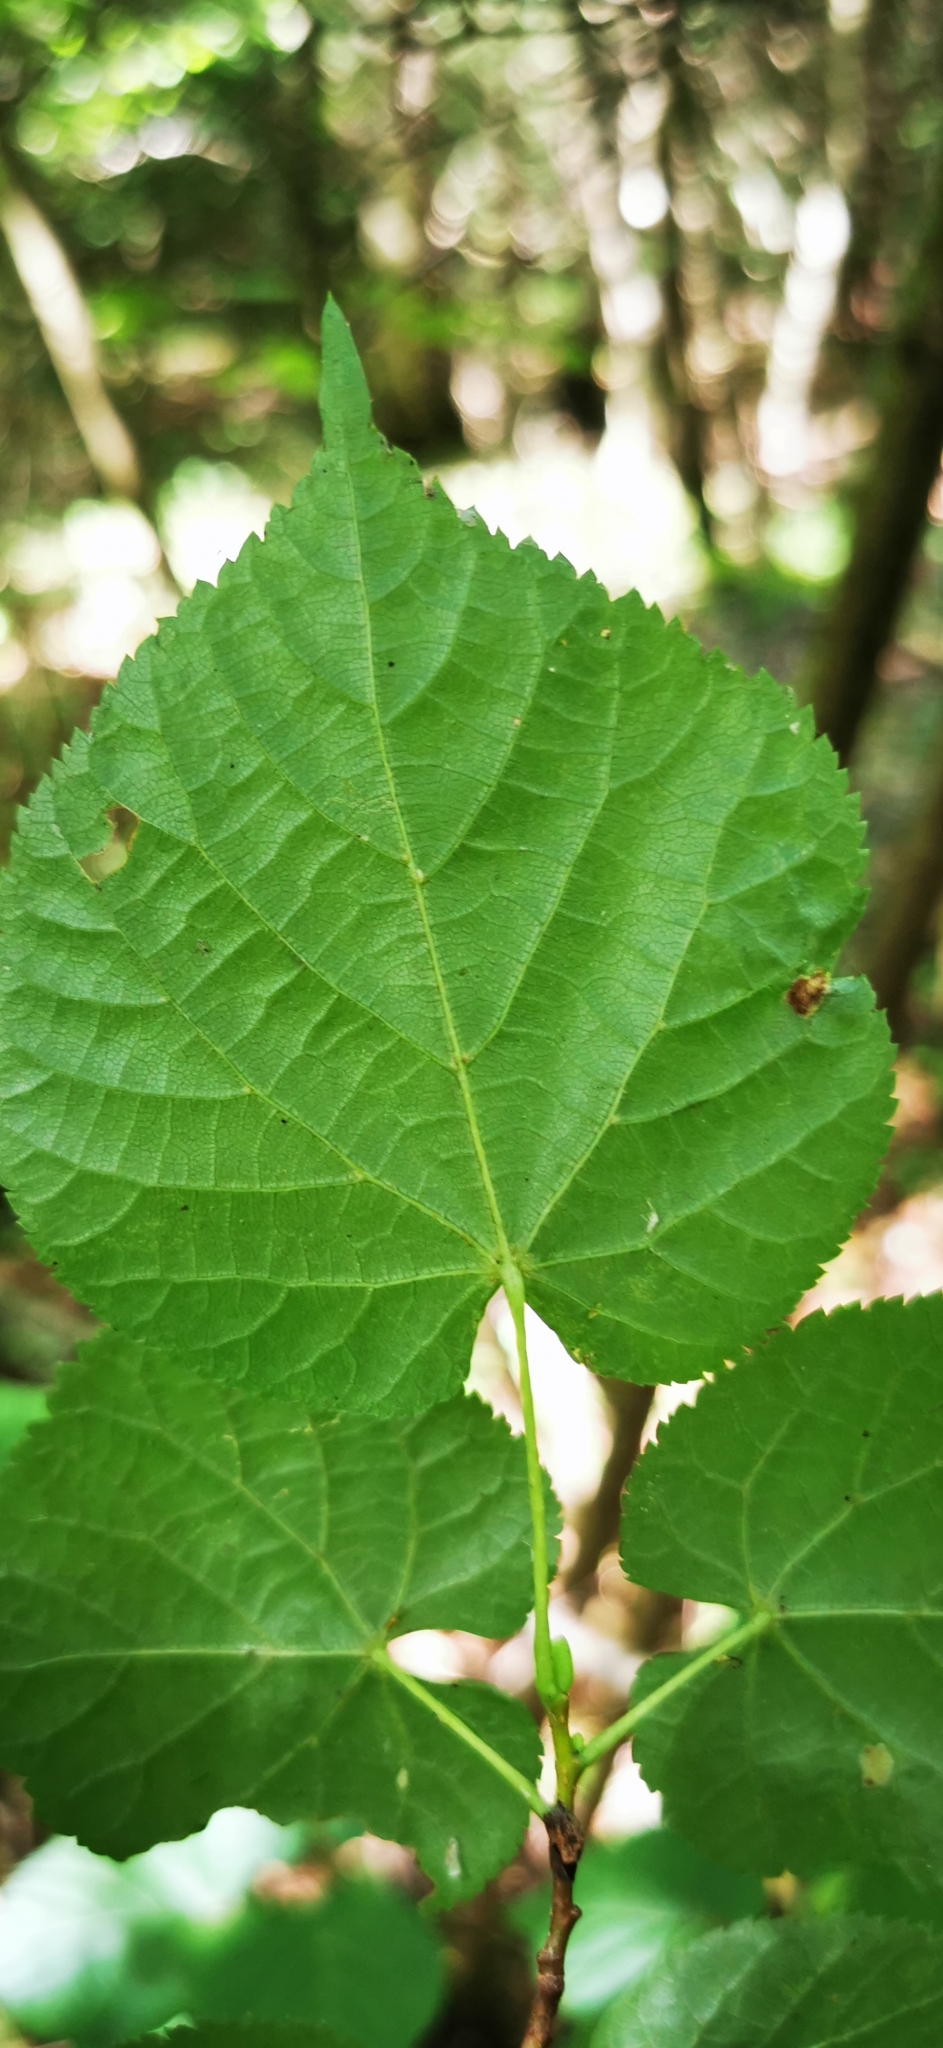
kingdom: Plantae
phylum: Tracheophyta
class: Magnoliopsida
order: Malvales
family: Malvaceae
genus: Tilia
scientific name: Tilia cordata
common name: Small-leaved lime
